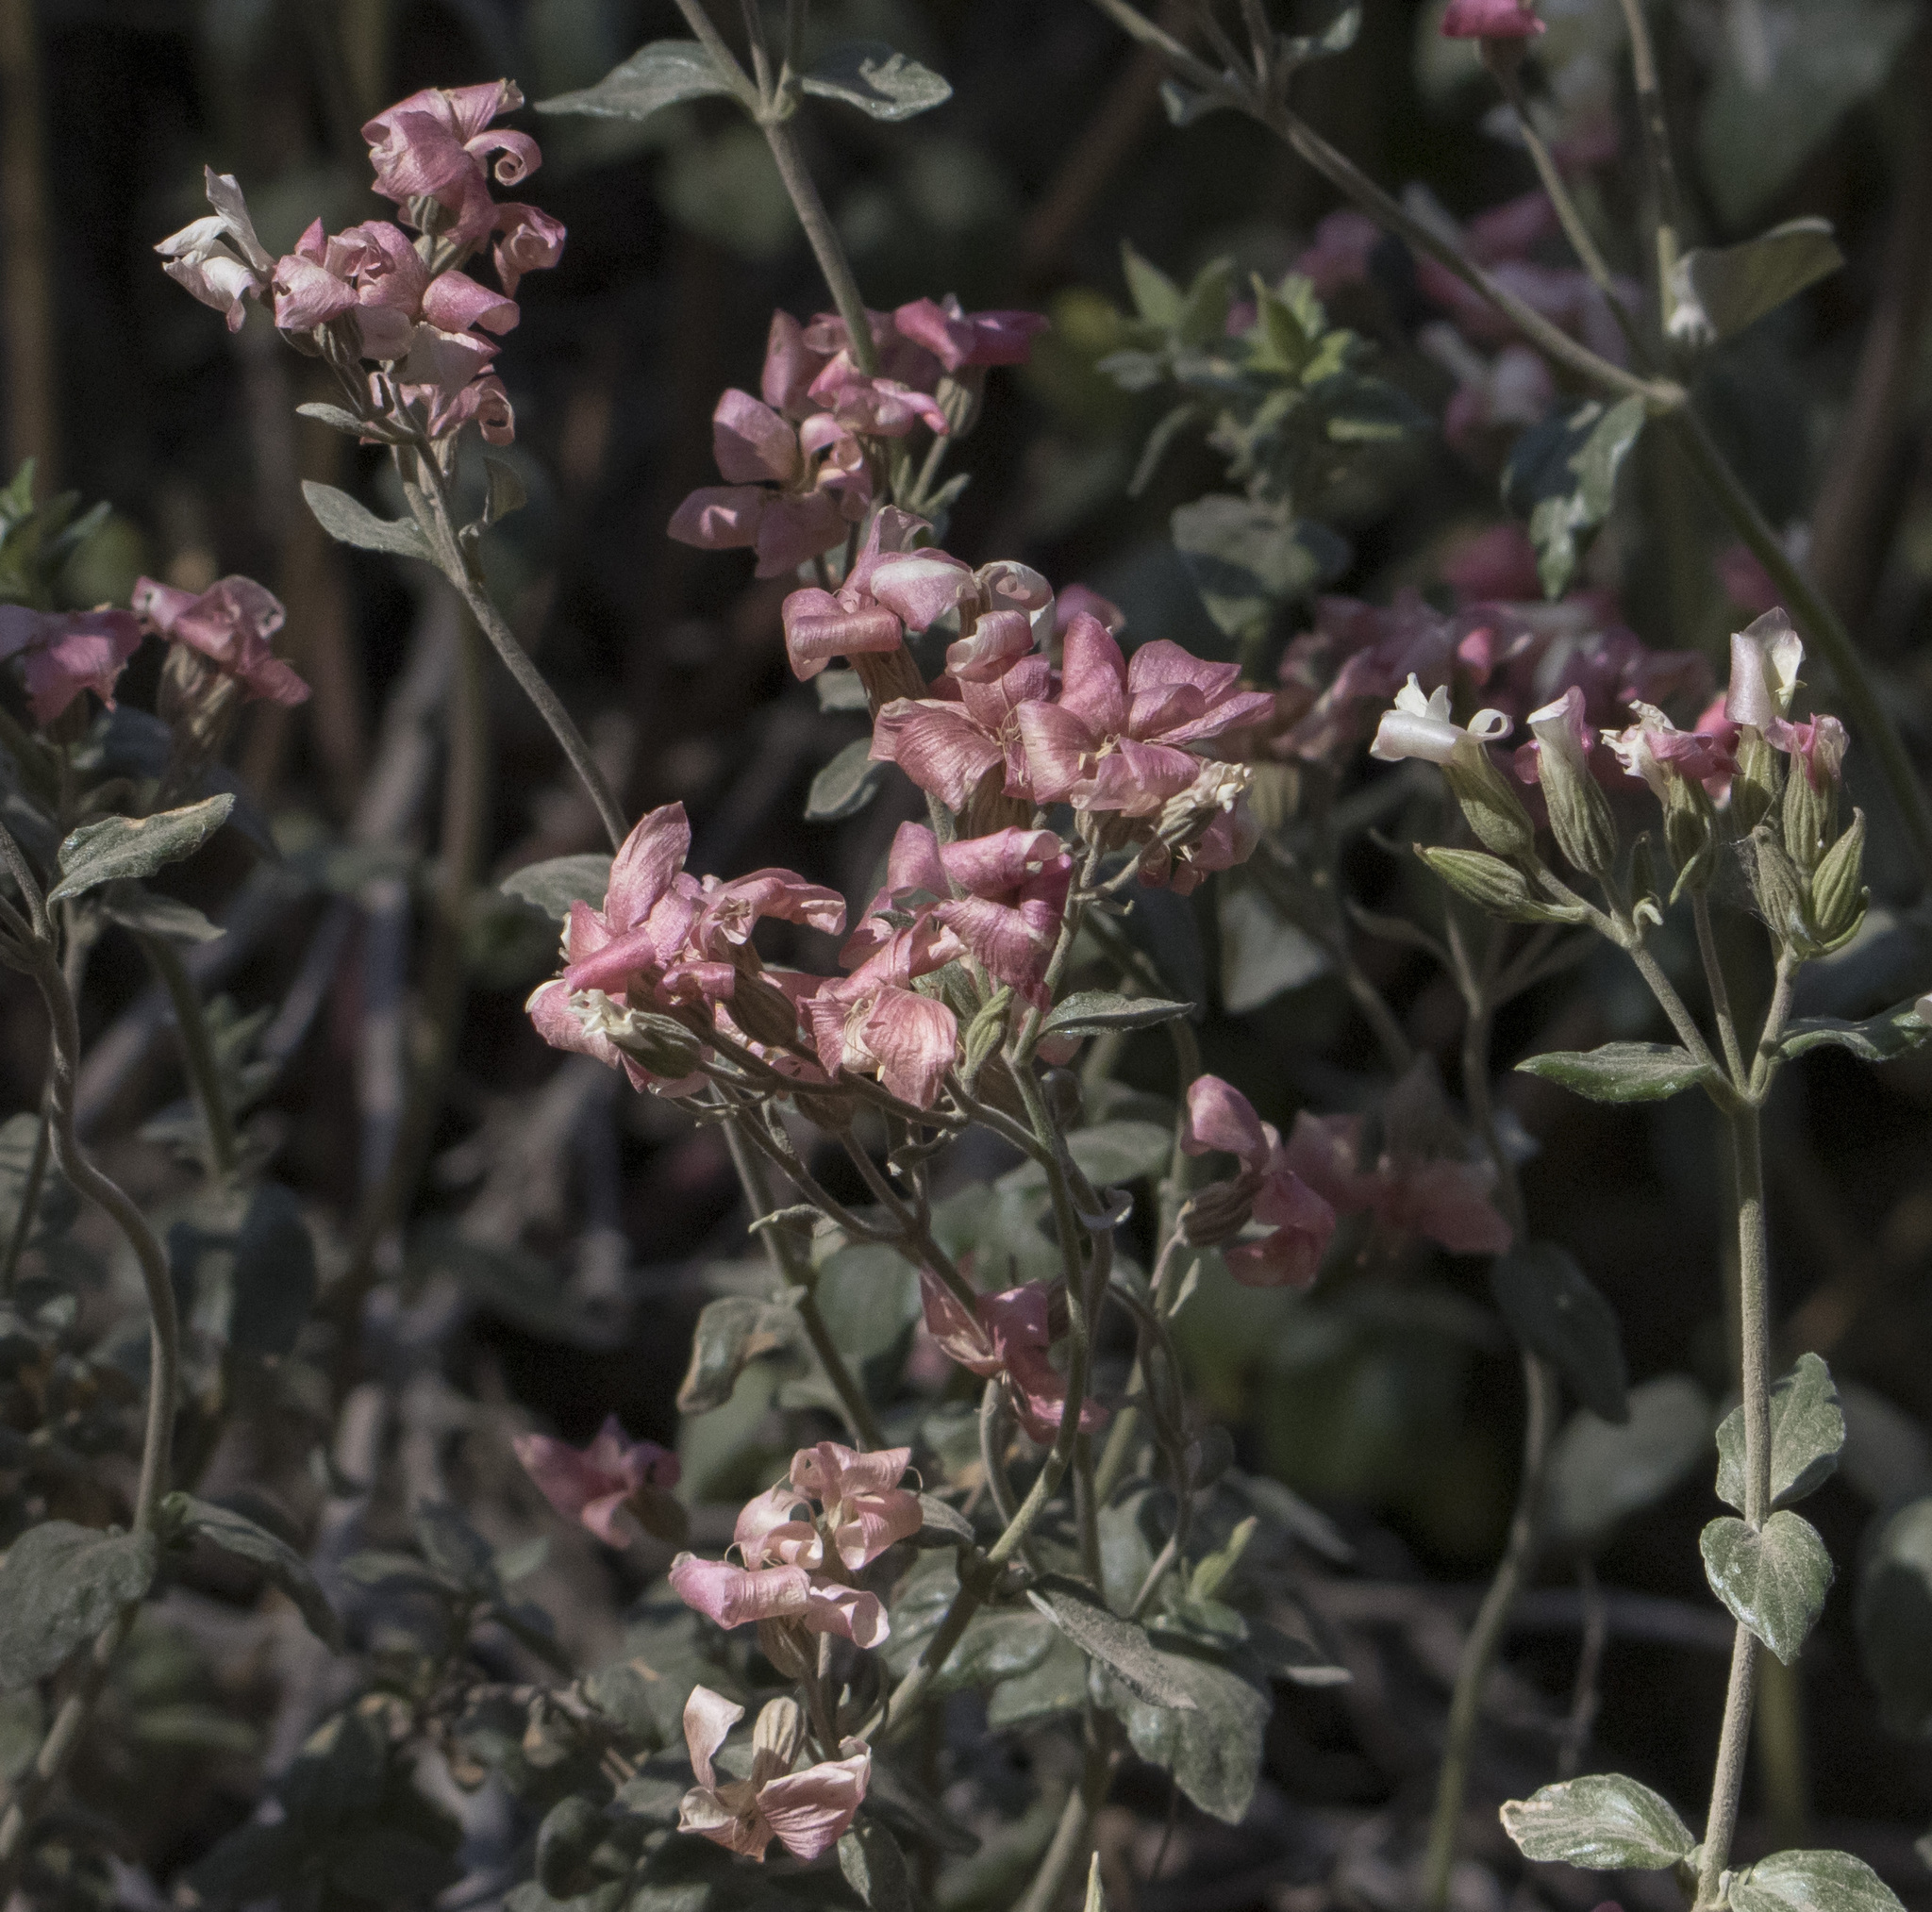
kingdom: Plantae
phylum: Tracheophyta
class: Magnoliopsida
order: Geraniales
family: Vivianiaceae
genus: Viviania
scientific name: Viviania marifolia
